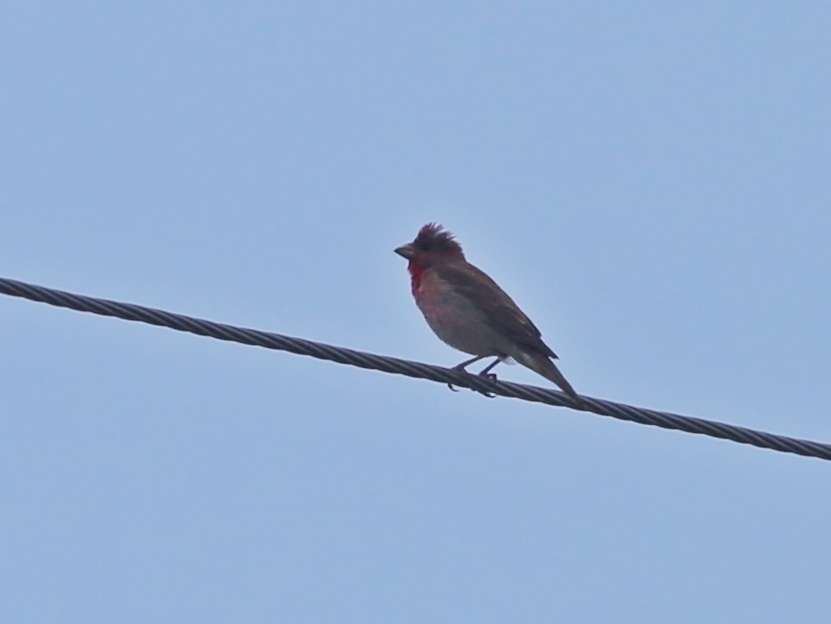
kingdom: Animalia
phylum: Chordata
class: Aves
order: Passeriformes
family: Fringillidae
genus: Carpodacus
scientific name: Carpodacus erythrinus
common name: Common rosefinch
